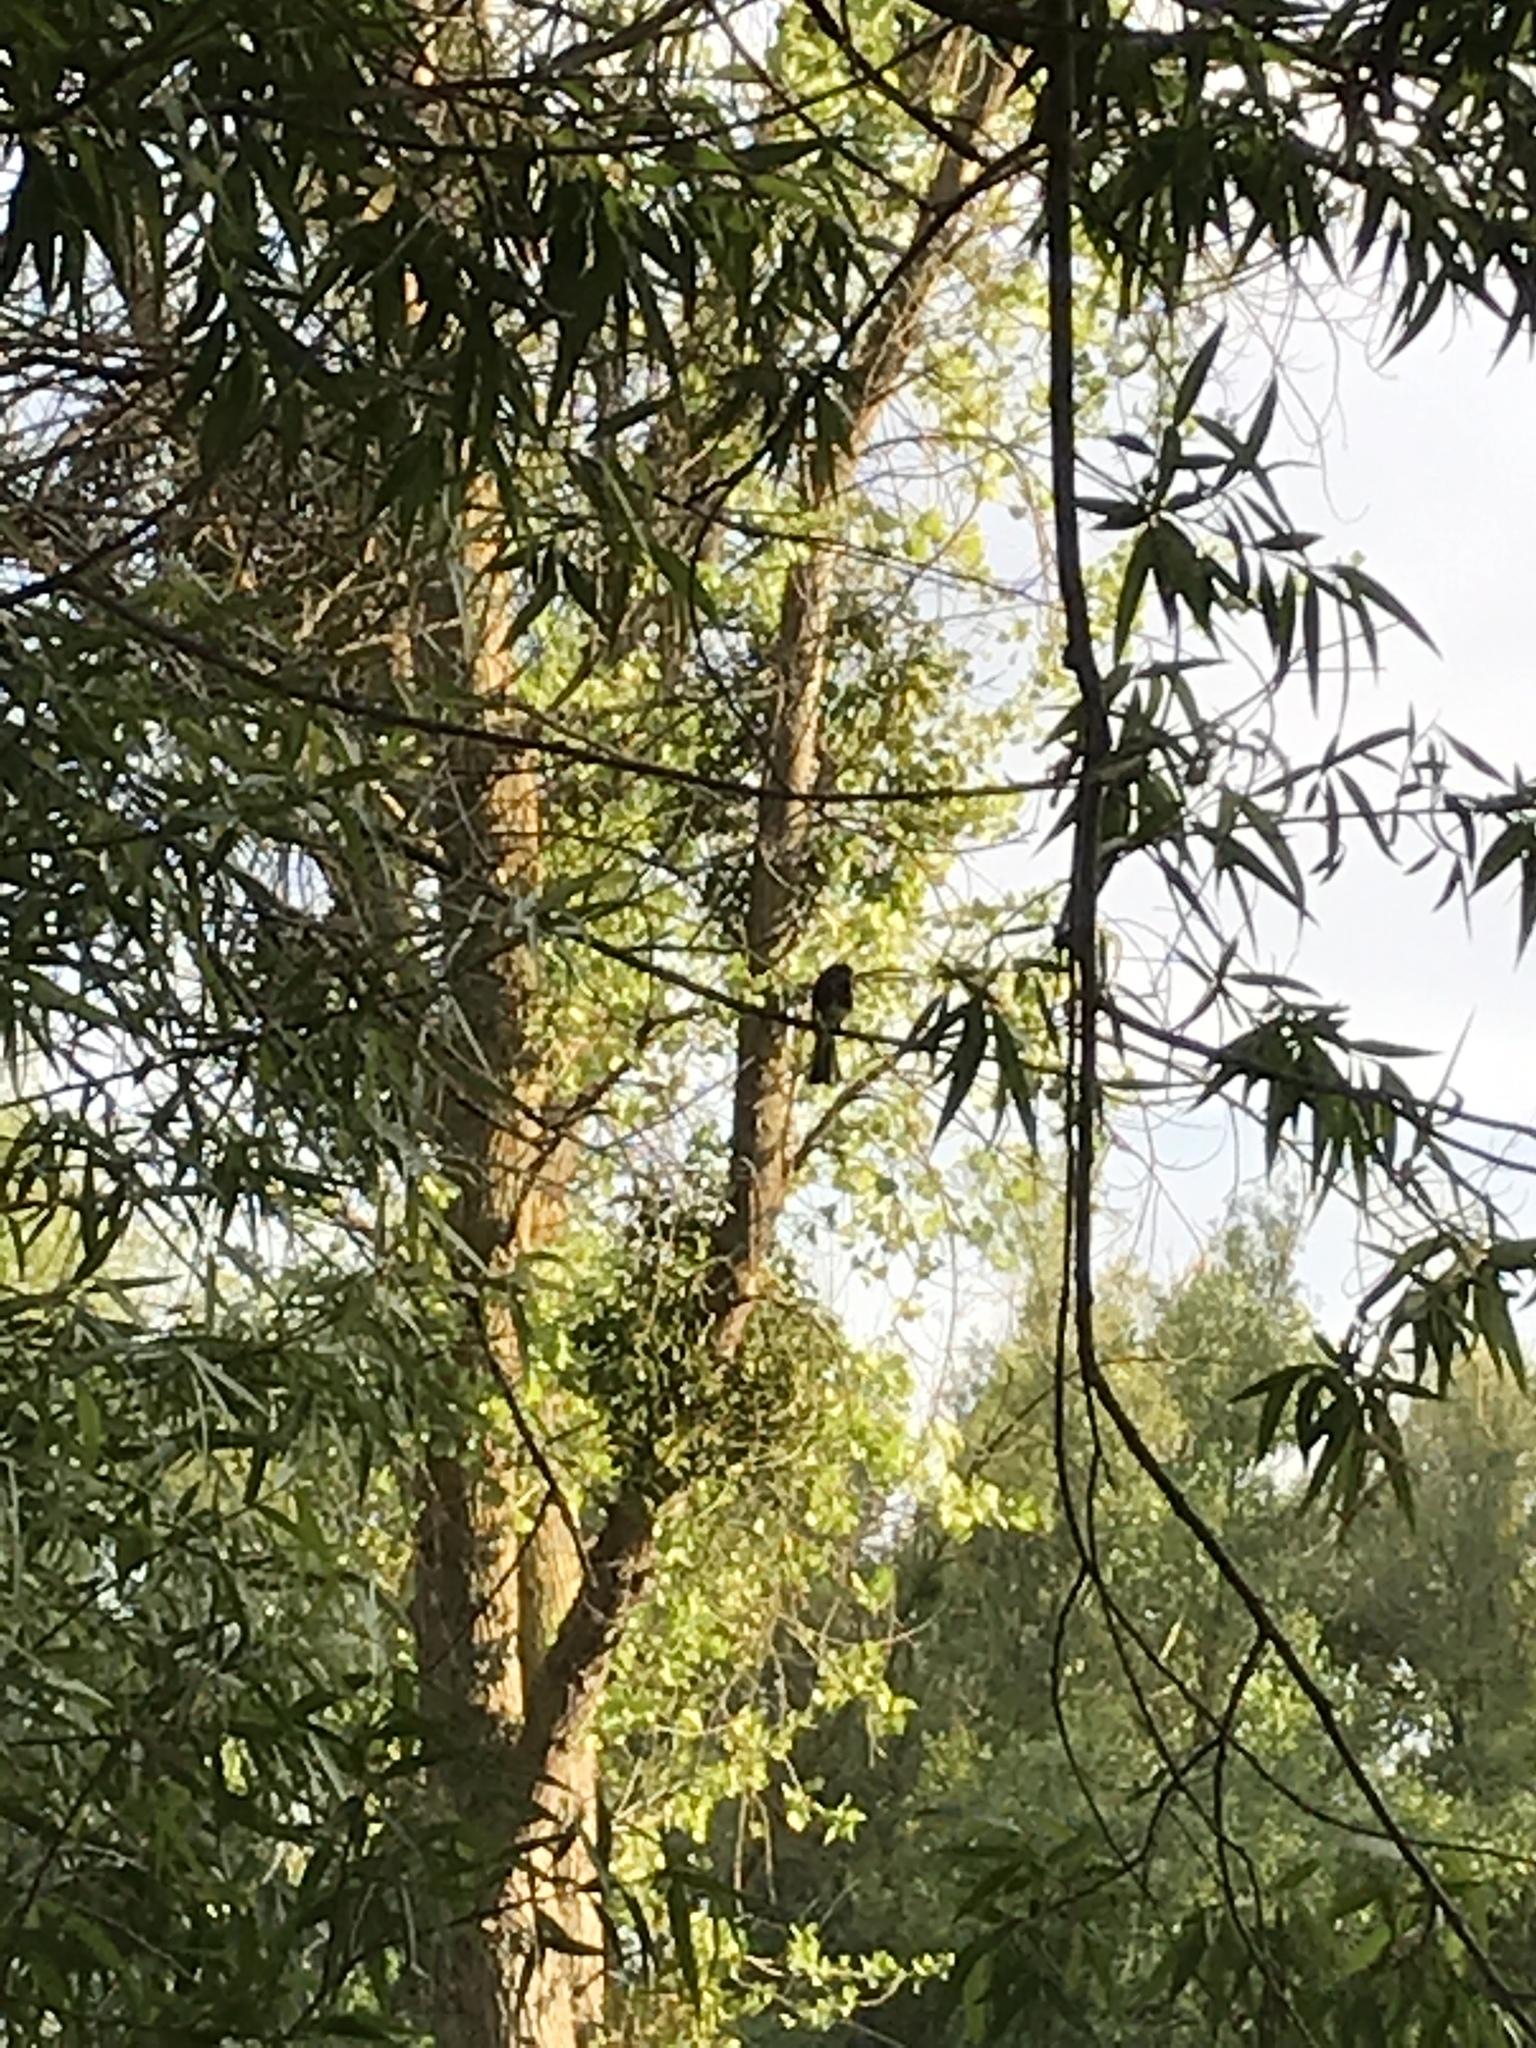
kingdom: Animalia
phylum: Chordata
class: Aves
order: Passeriformes
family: Tyrannidae
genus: Sayornis
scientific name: Sayornis nigricans
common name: Black phoebe
